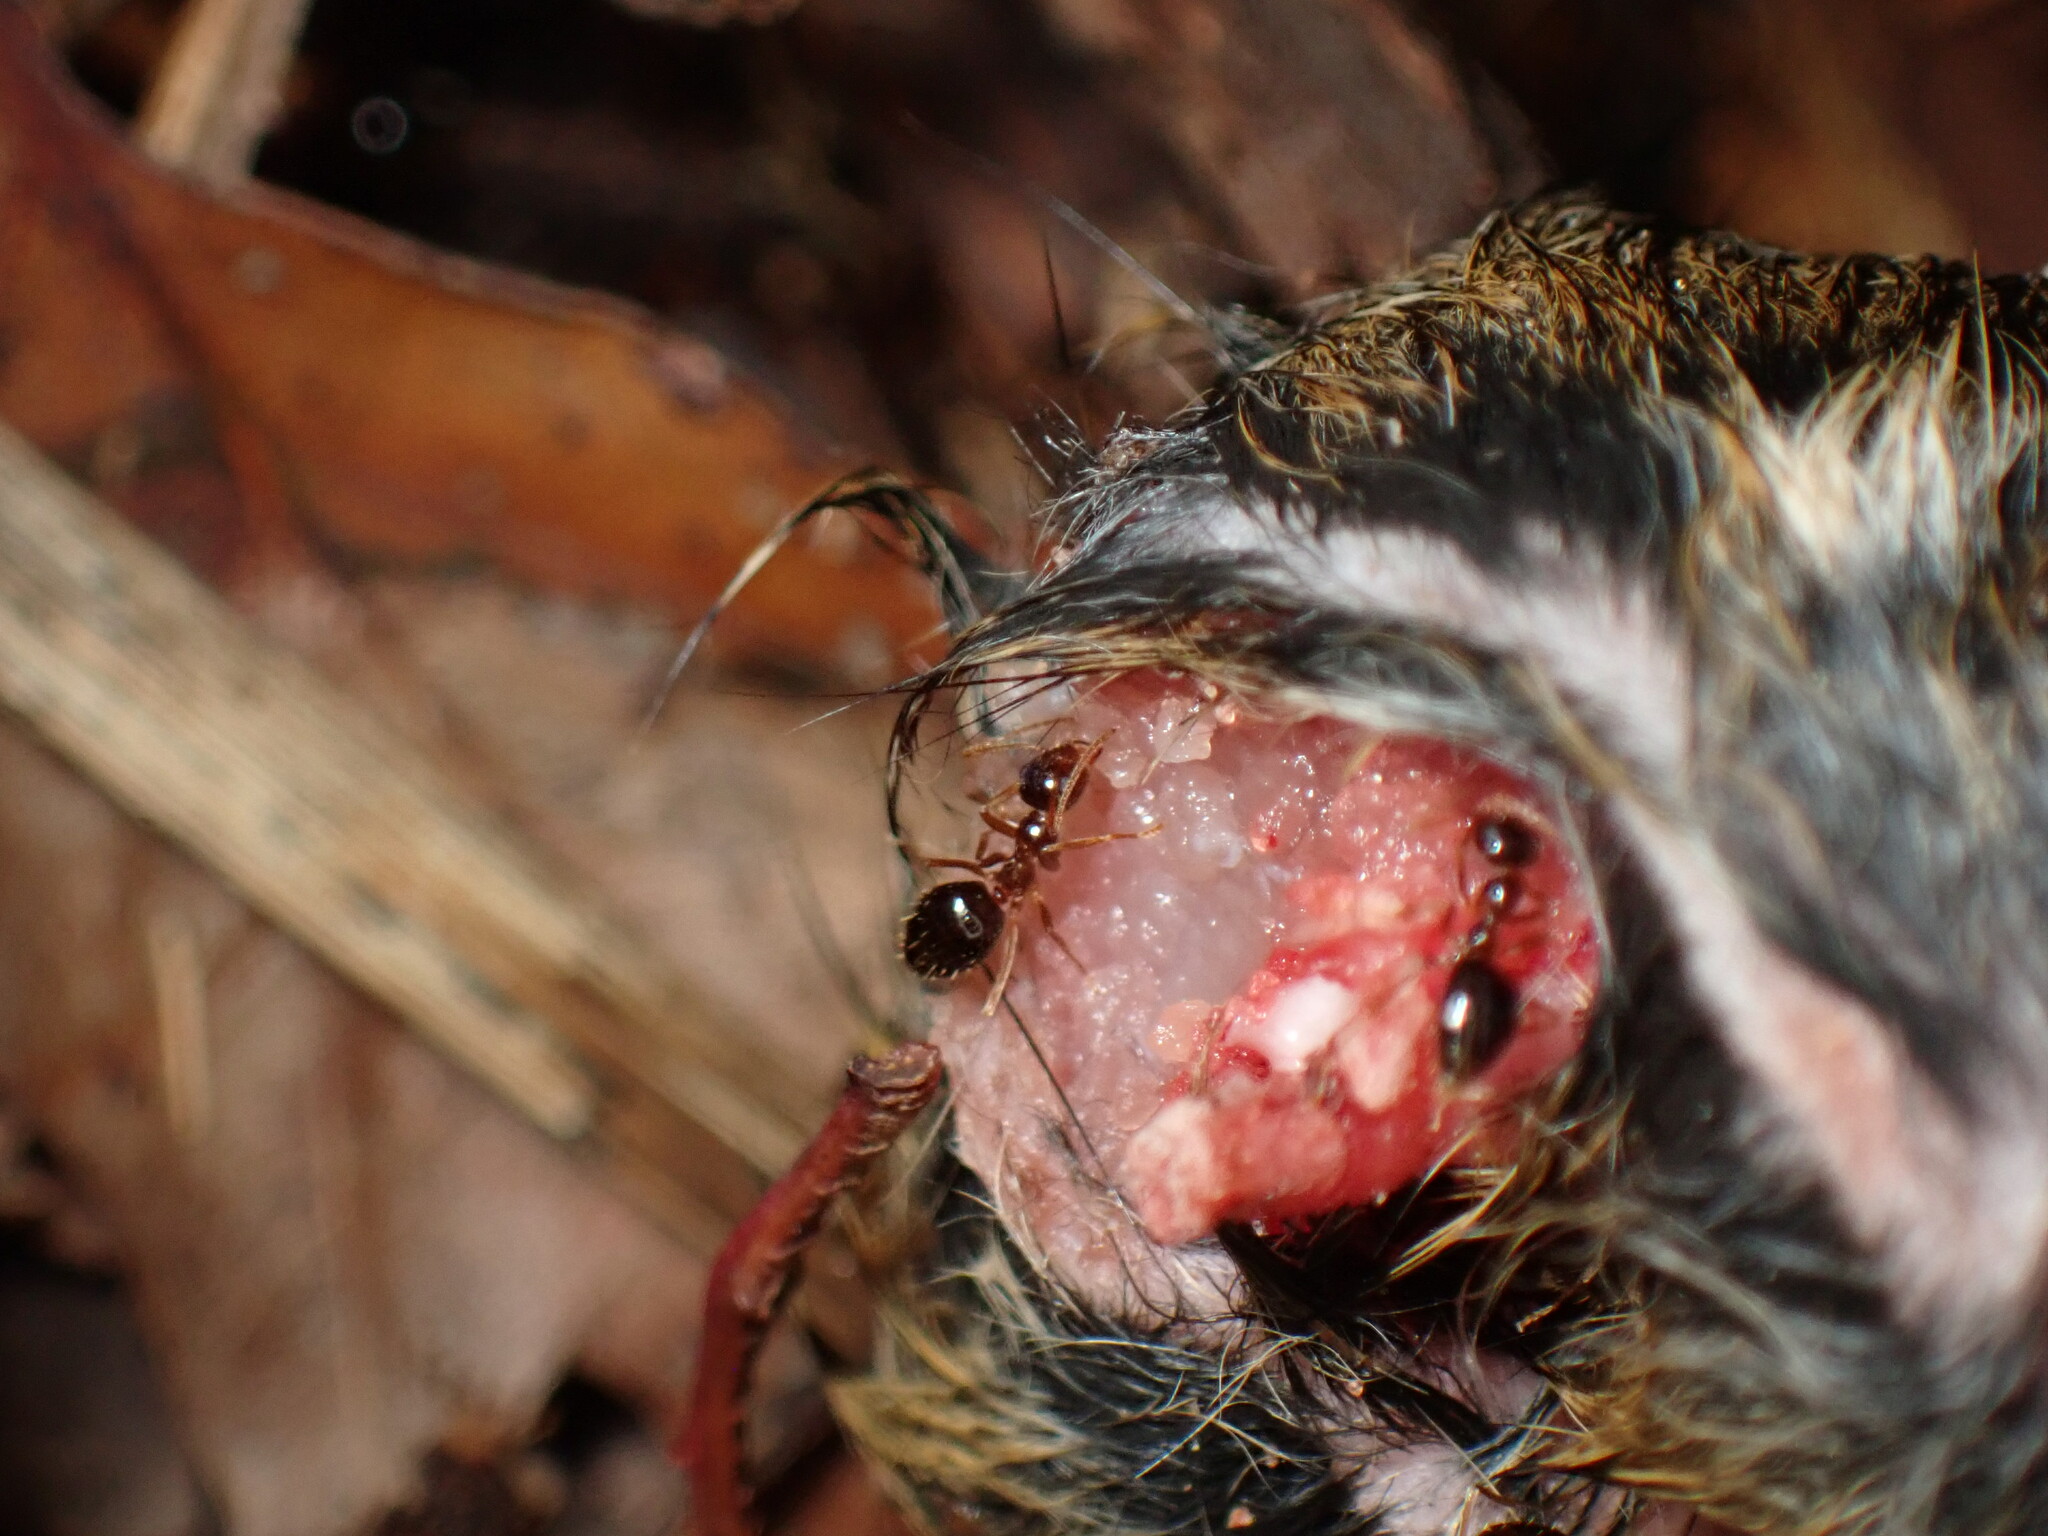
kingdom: Animalia
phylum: Arthropoda
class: Insecta
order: Hymenoptera
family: Formicidae
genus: Prenolepis
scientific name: Prenolepis imparis
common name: Small honey ant
